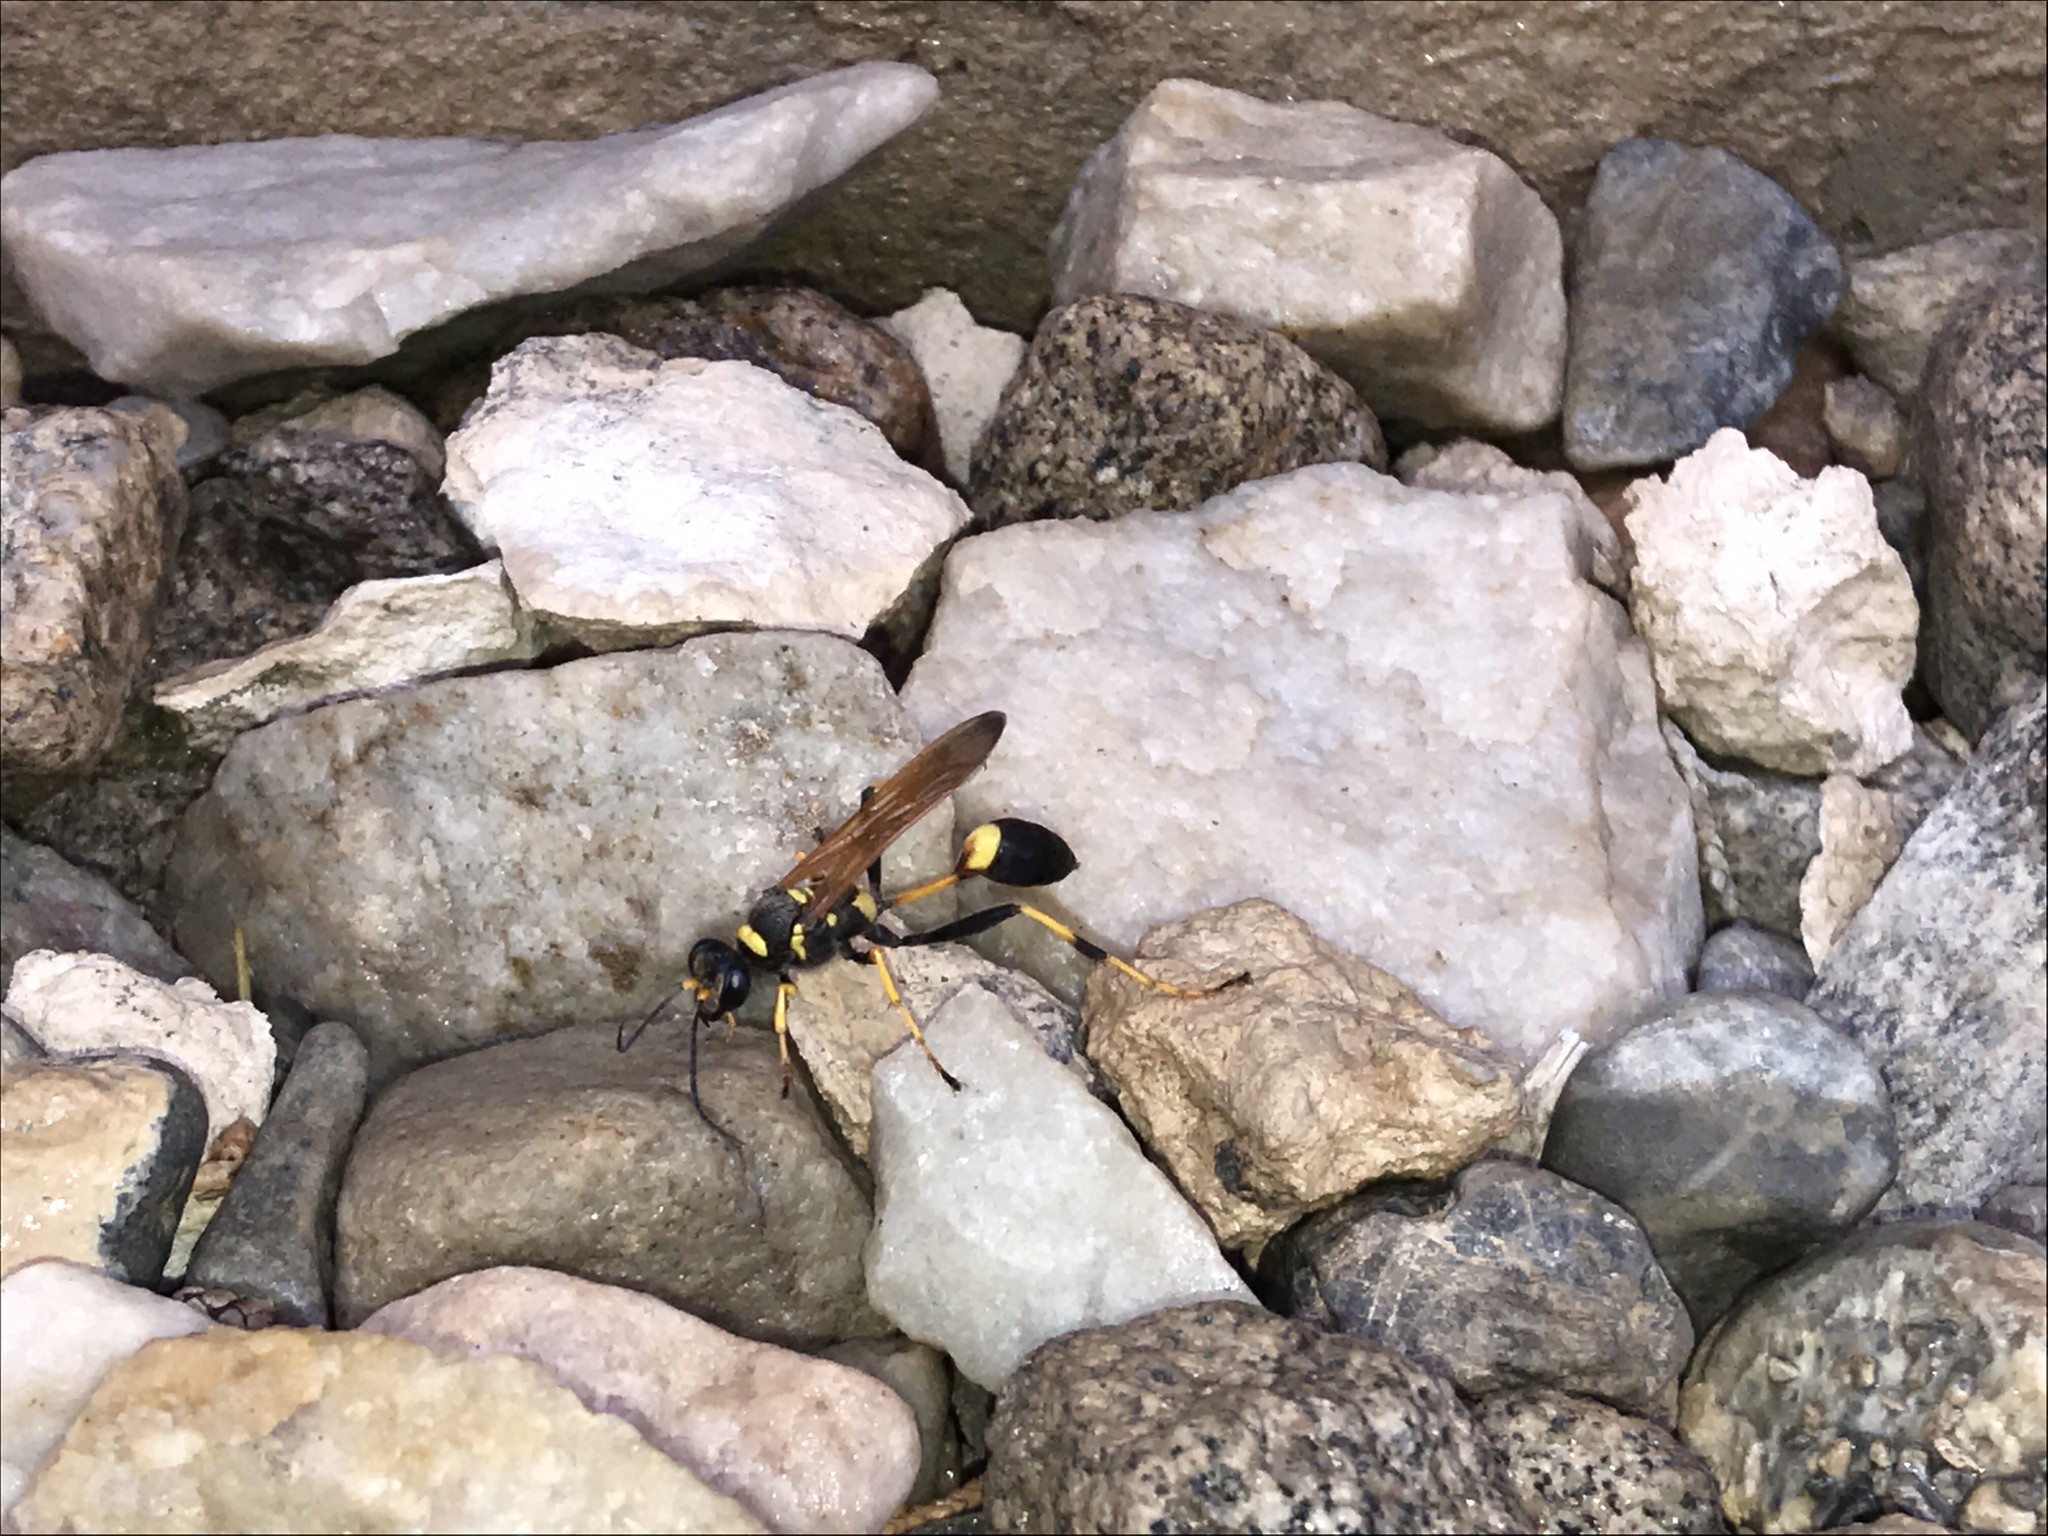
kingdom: Animalia
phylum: Arthropoda
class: Insecta
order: Hymenoptera
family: Sphecidae
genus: Sceliphron
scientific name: Sceliphron caementarium
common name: Mud dauber
